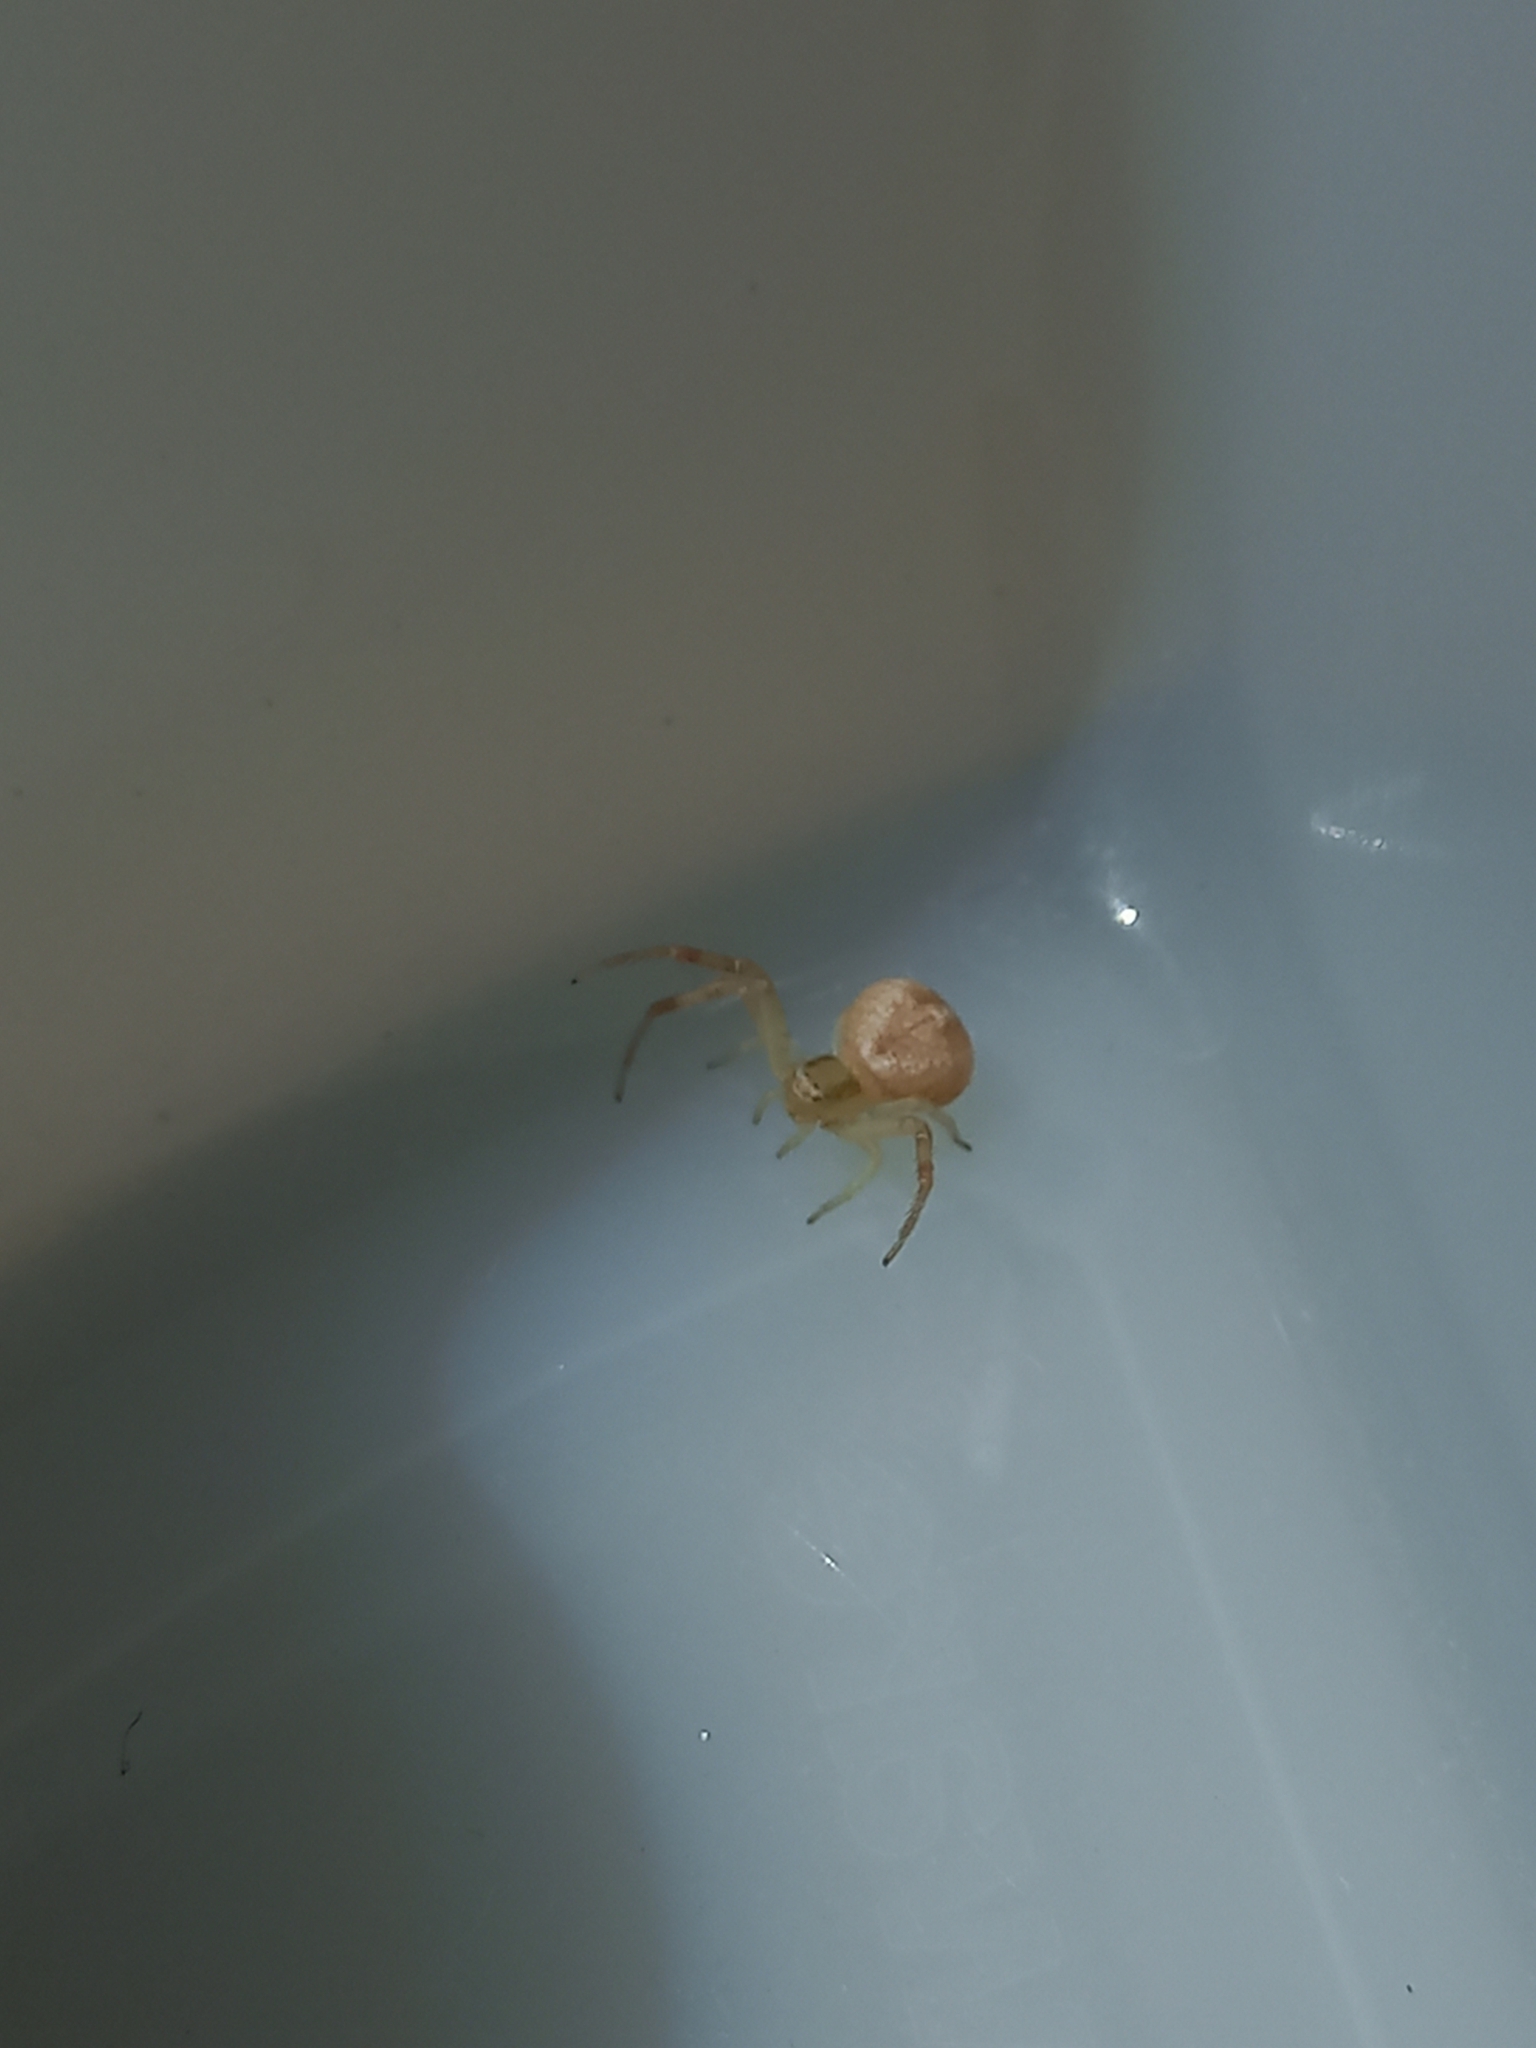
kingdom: Animalia
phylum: Arthropoda
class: Arachnida
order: Araneae
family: Thomisidae
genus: Misumenops
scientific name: Misumenops
